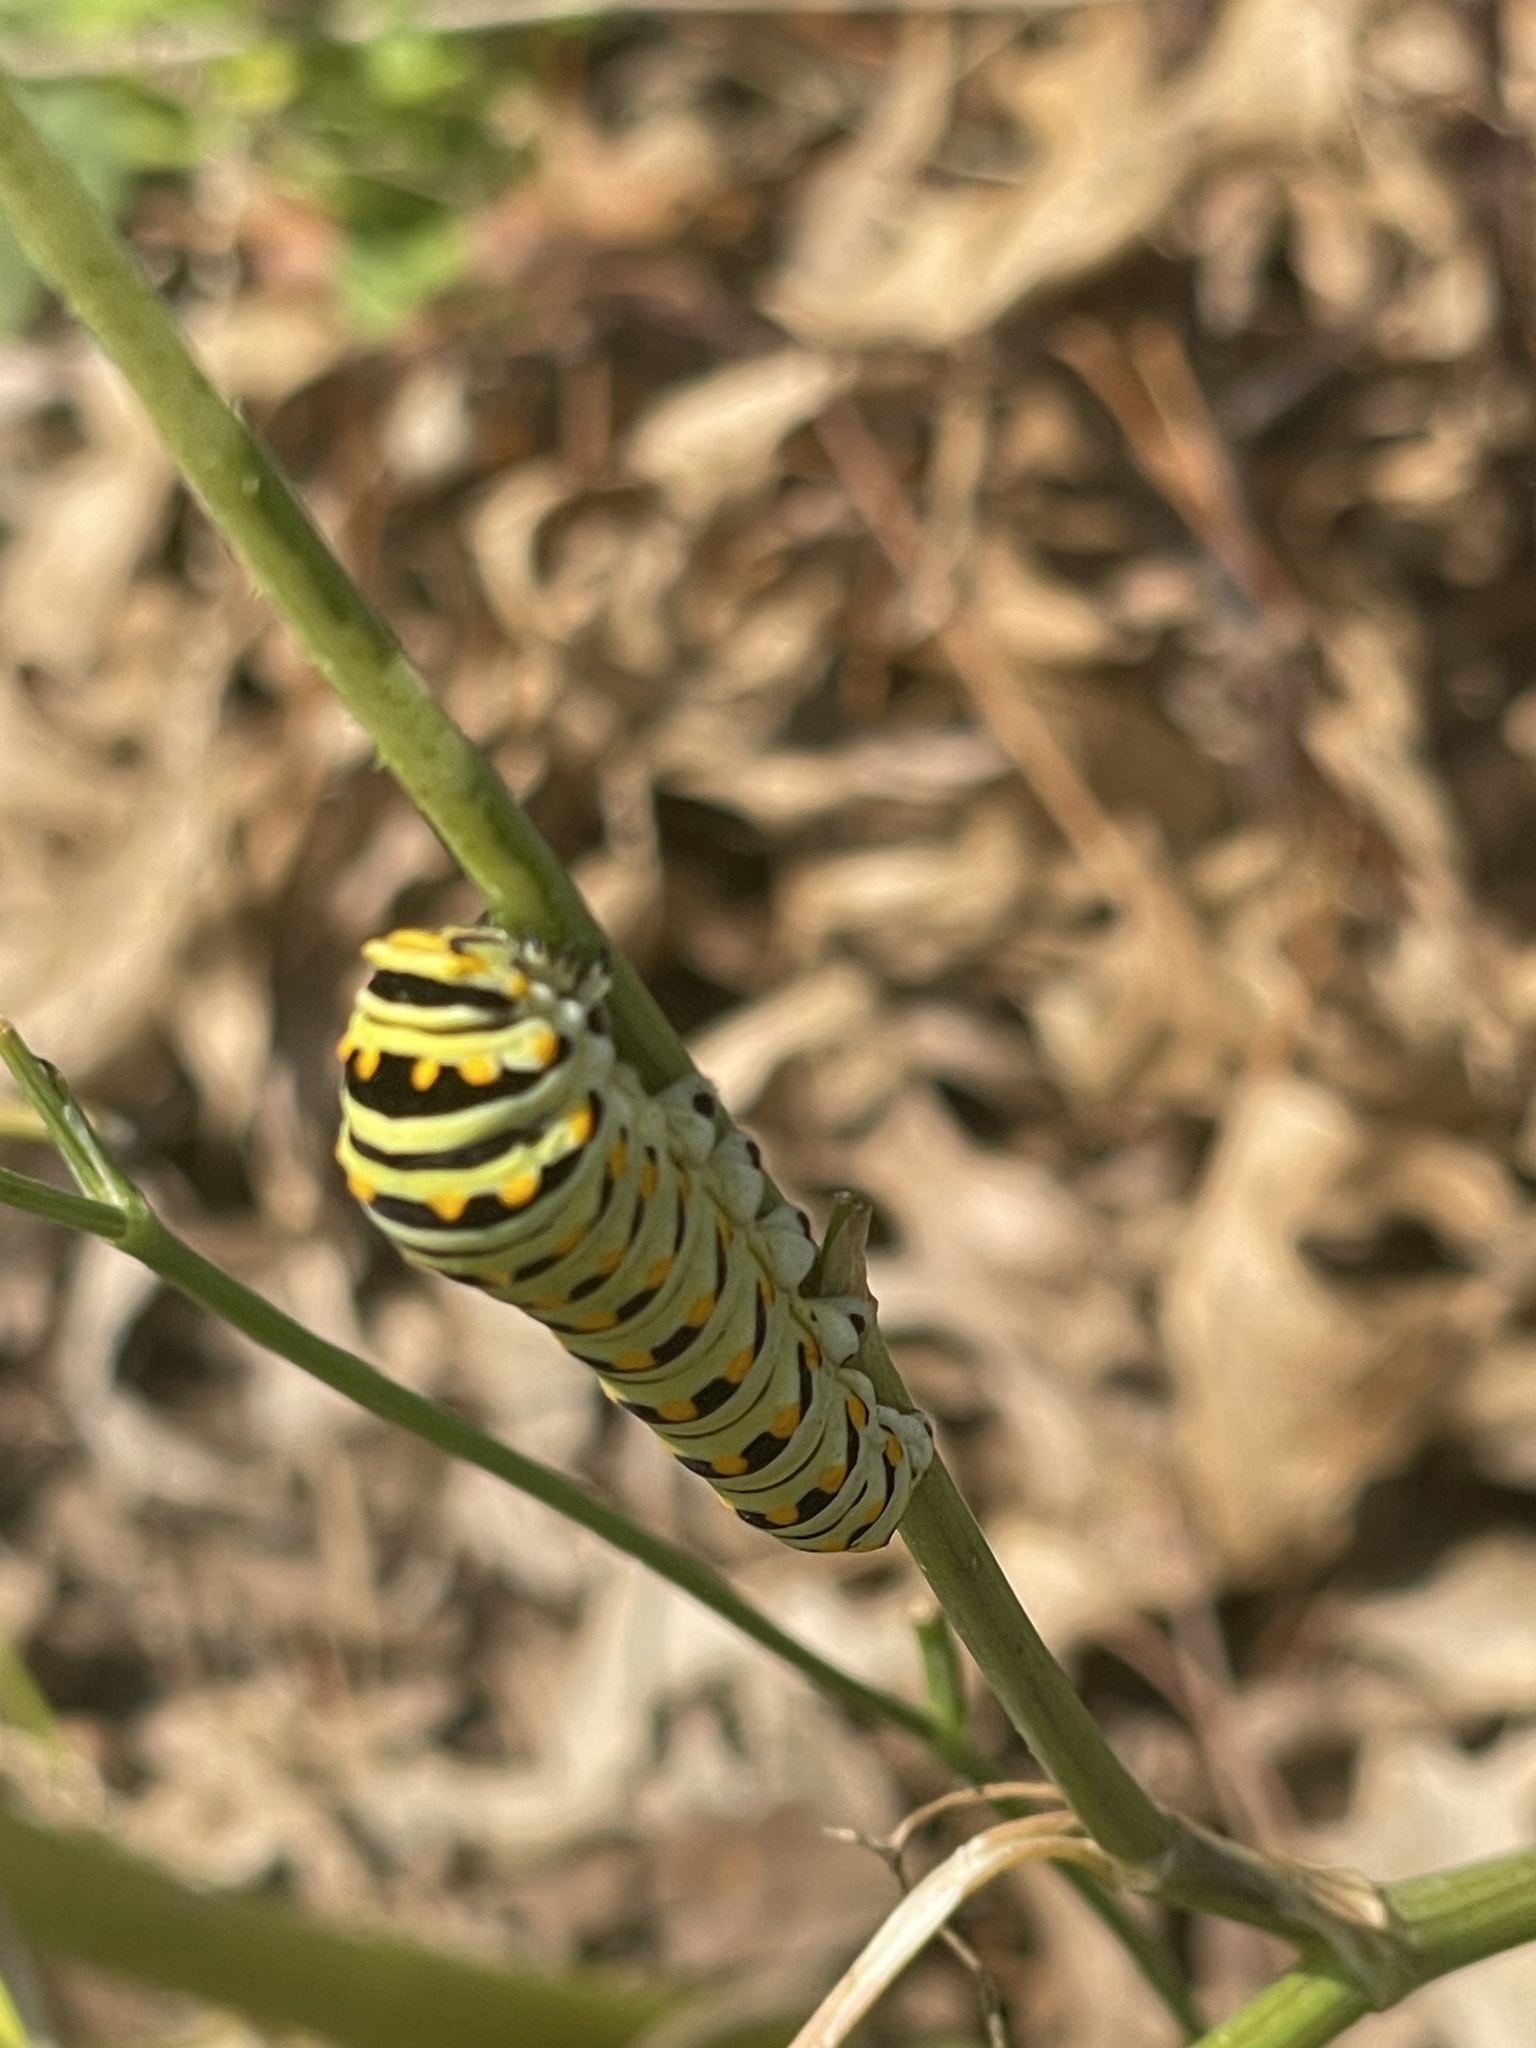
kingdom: Animalia
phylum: Arthropoda
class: Insecta
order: Lepidoptera
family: Papilionidae
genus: Papilio
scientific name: Papilio polyxenes
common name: Black swallowtail
